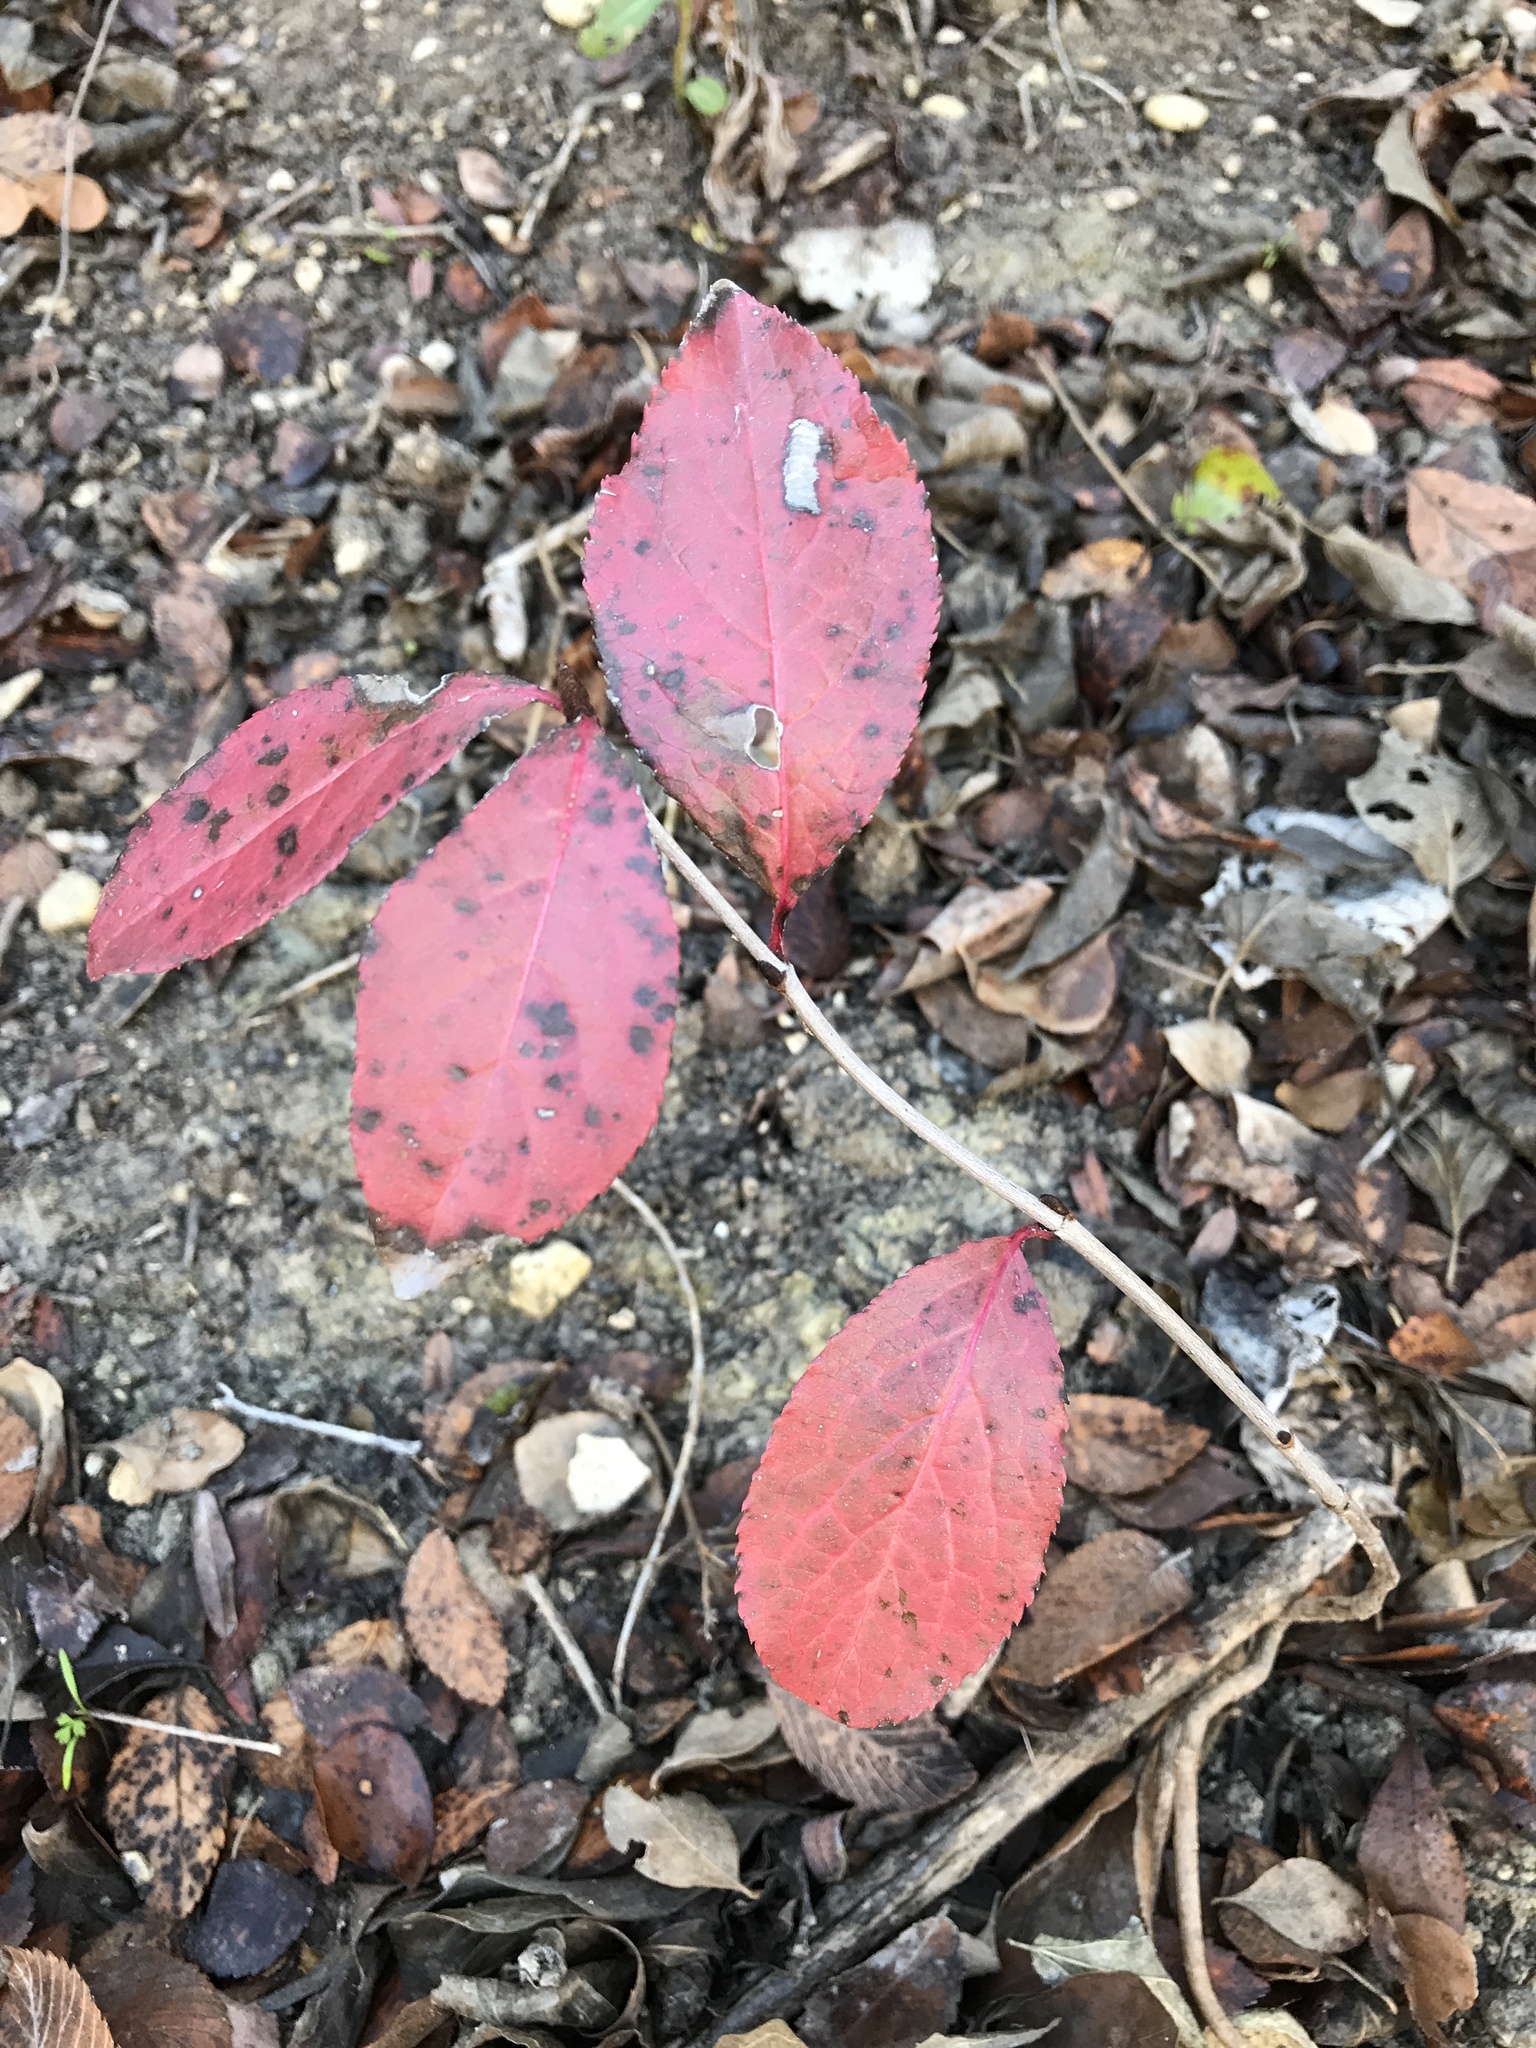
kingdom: Plantae
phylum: Tracheophyta
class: Magnoliopsida
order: Dipsacales
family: Viburnaceae
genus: Viburnum
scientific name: Viburnum rufidulum
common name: Blue haw
